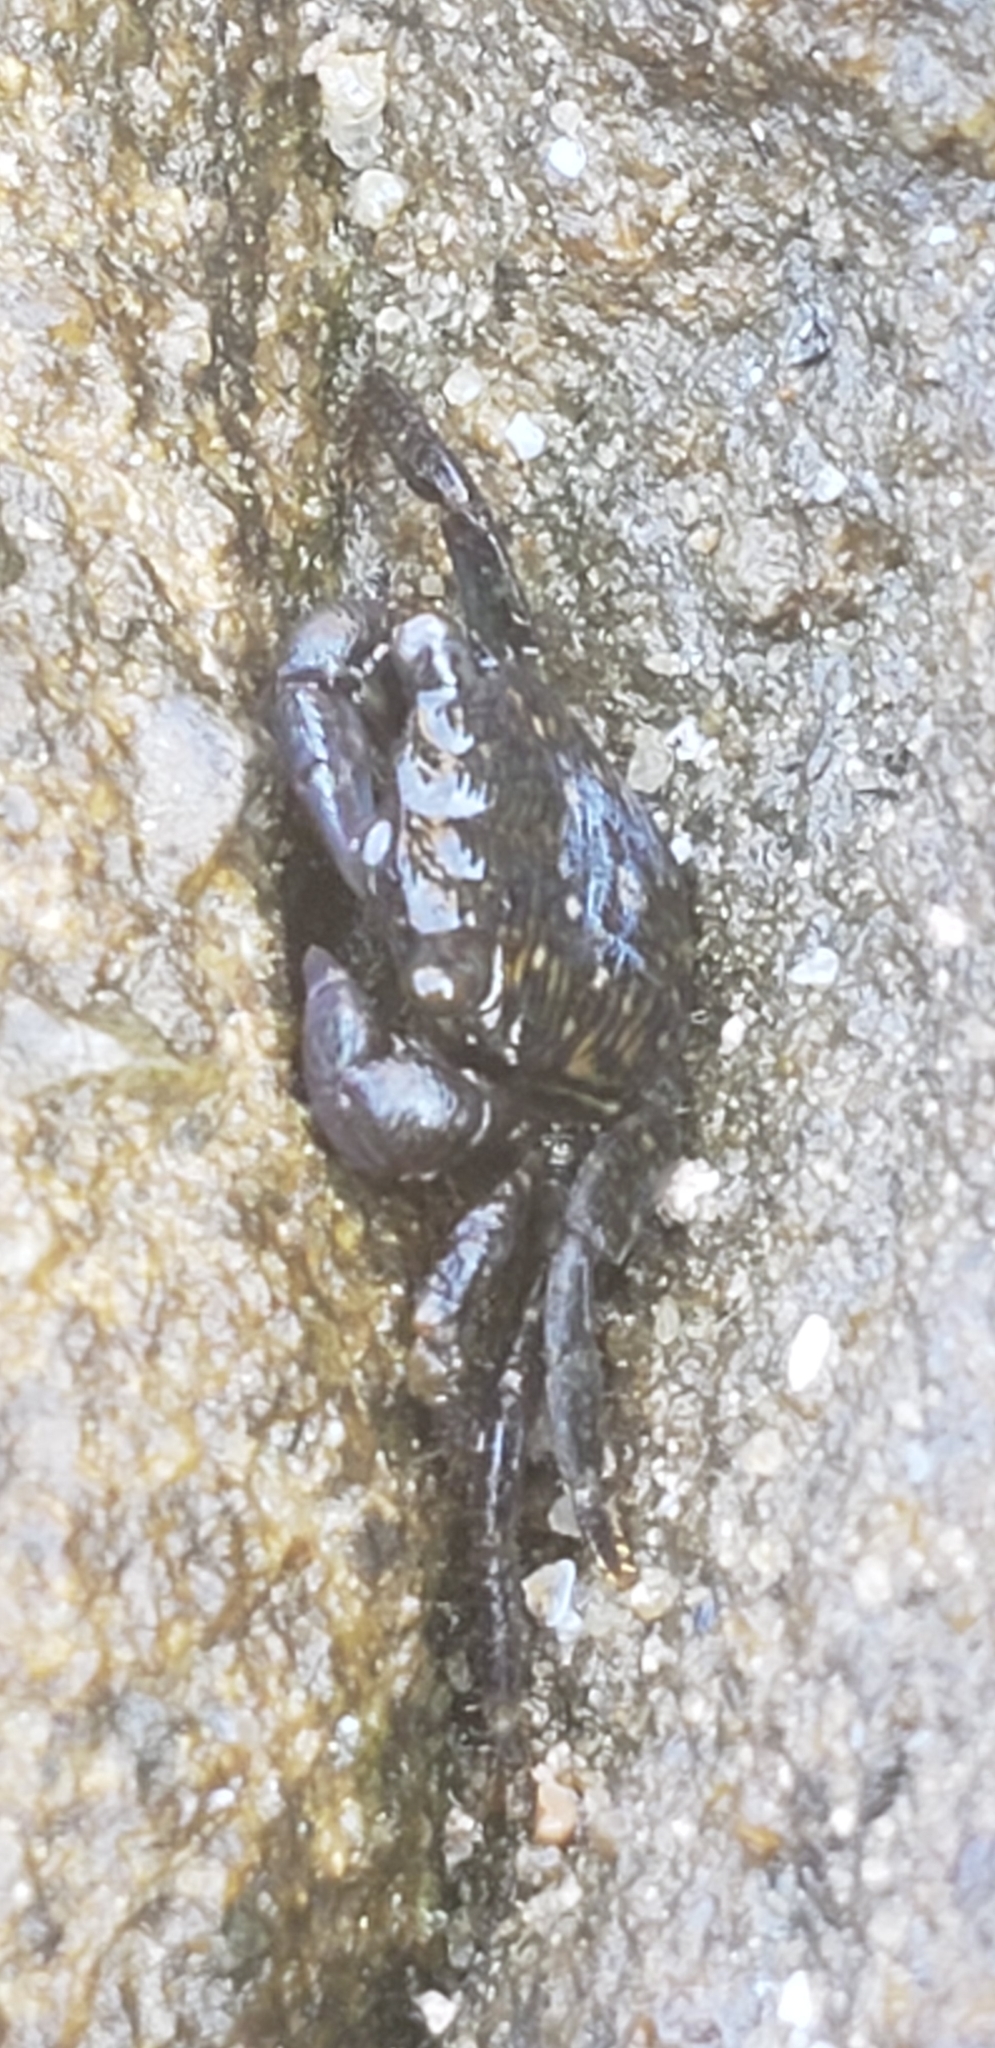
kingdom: Animalia
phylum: Arthropoda
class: Malacostraca
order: Decapoda
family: Grapsidae
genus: Pachygrapsus
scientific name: Pachygrapsus crassipes
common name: Striped shore crab
